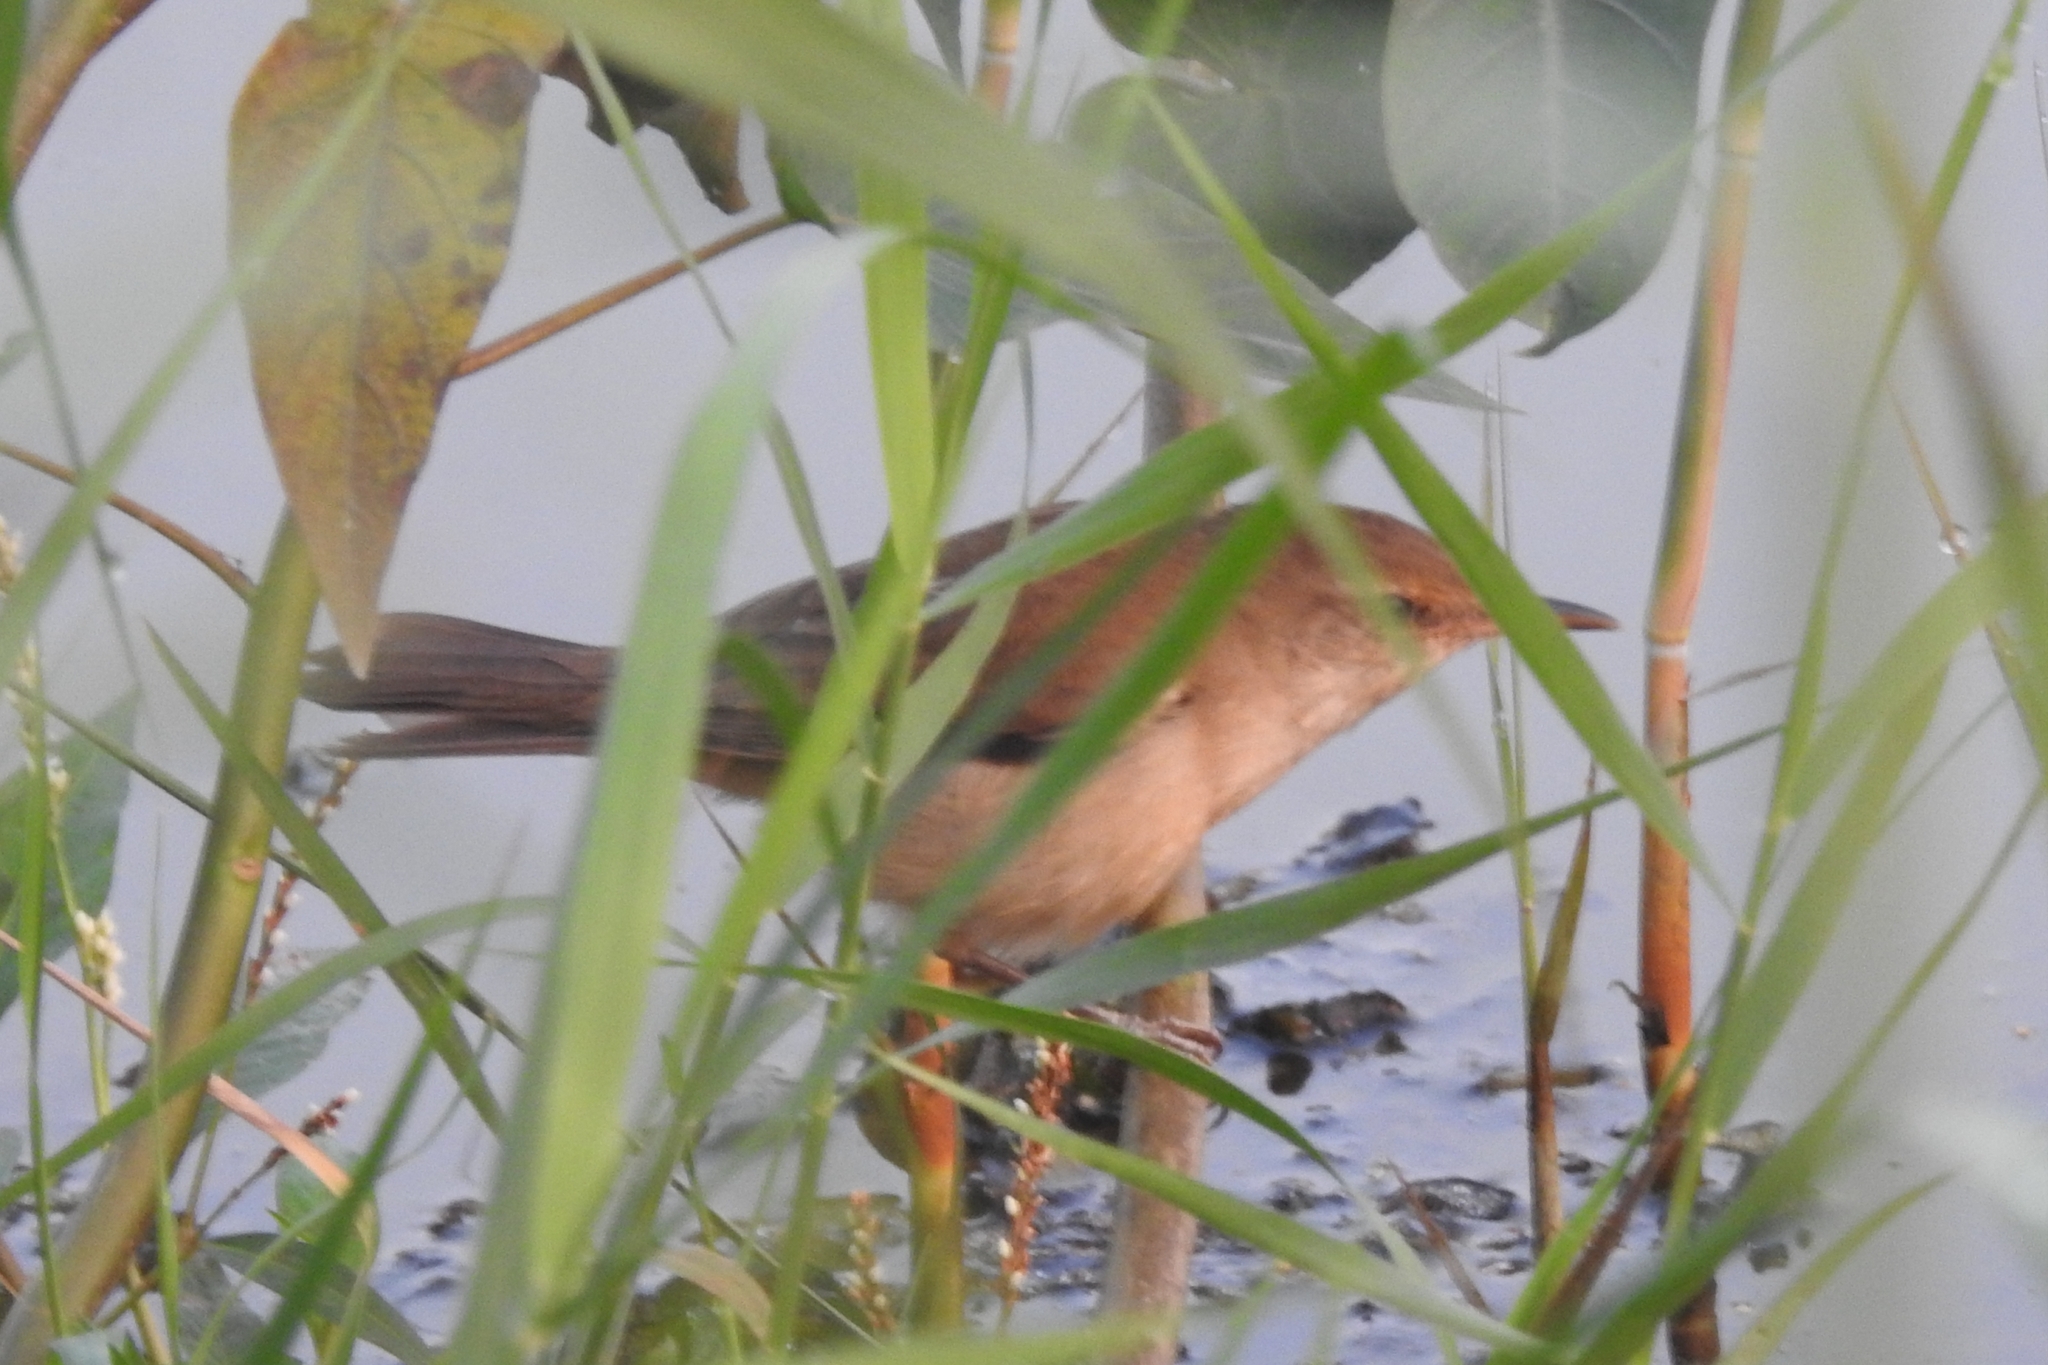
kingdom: Animalia
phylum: Chordata
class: Aves
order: Passeriformes
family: Acrocephalidae
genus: Acrocephalus
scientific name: Acrocephalus dumetorum
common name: Blyth's reed warbler
